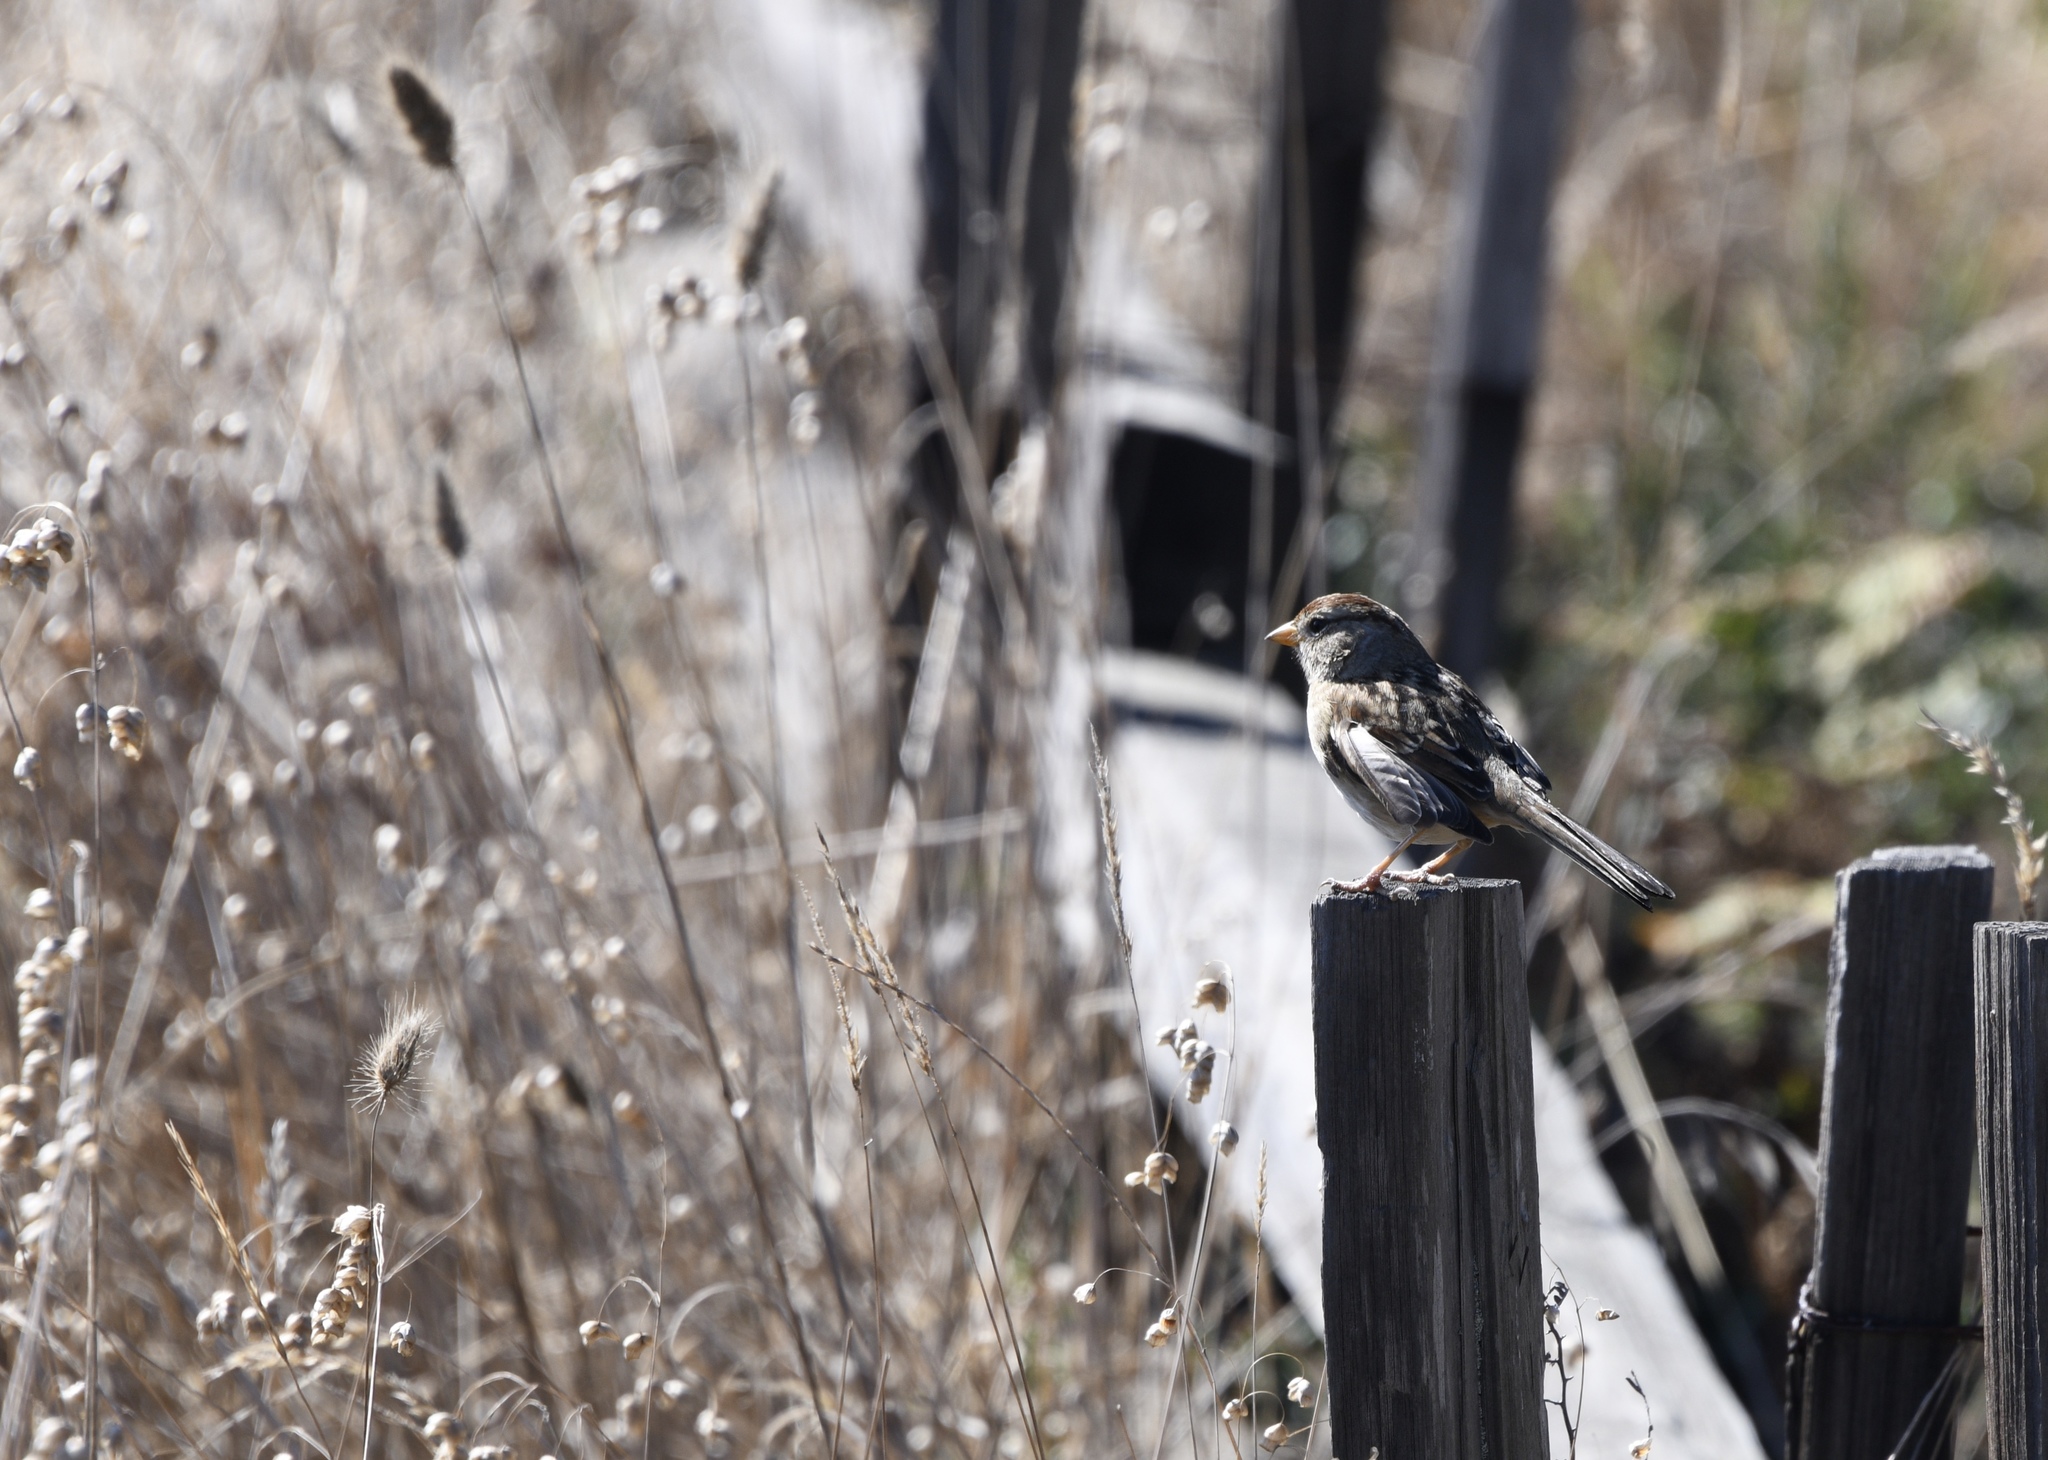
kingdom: Animalia
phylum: Chordata
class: Aves
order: Passeriformes
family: Passerellidae
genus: Zonotrichia
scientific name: Zonotrichia leucophrys
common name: White-crowned sparrow
